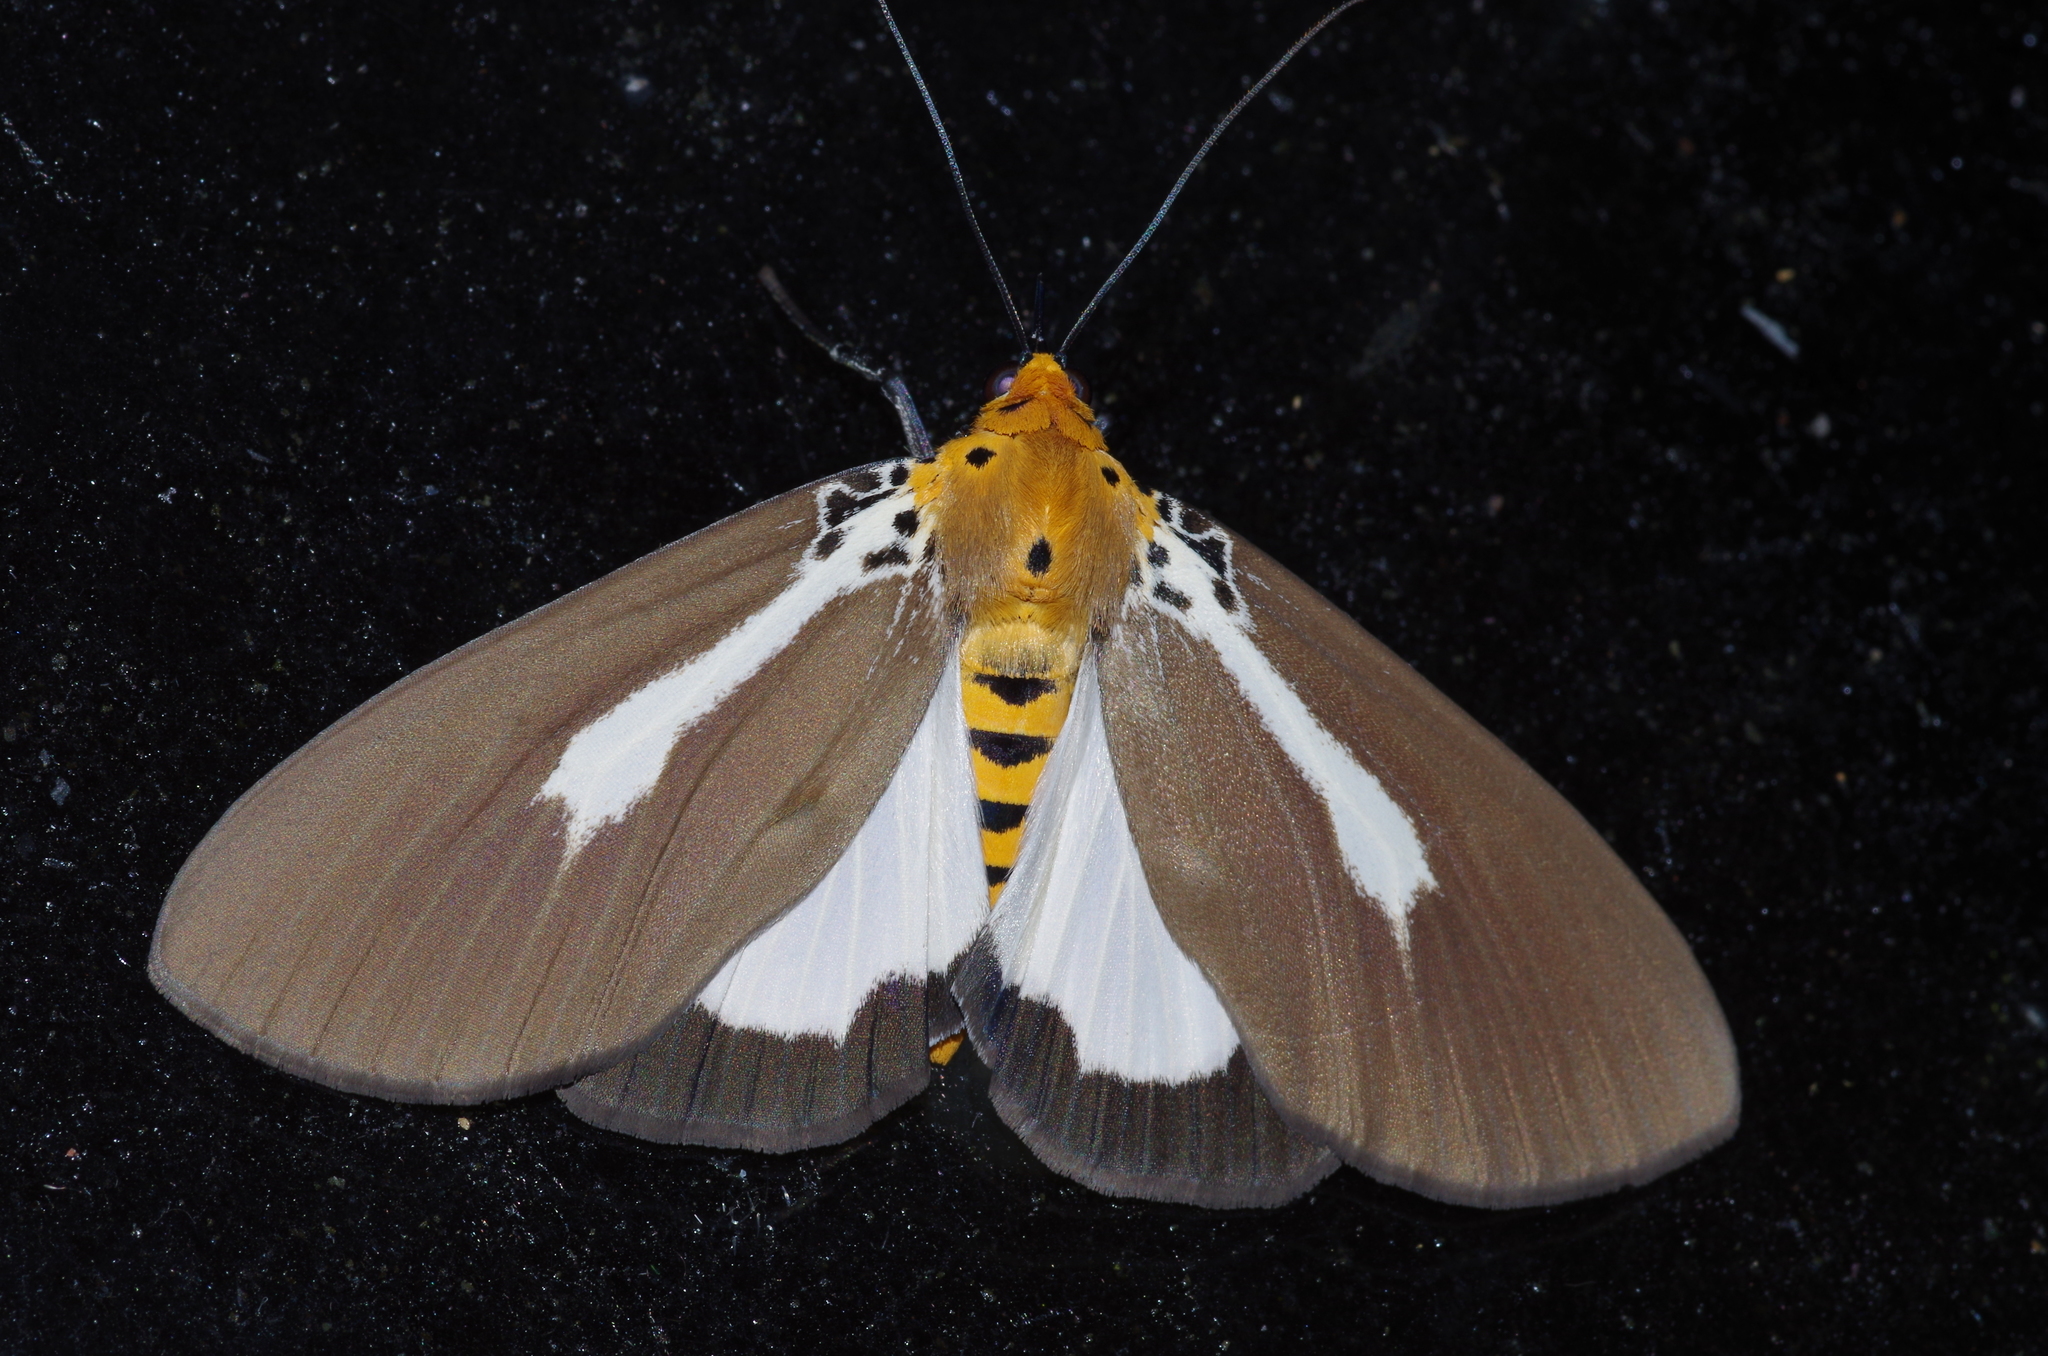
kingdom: Animalia
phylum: Arthropoda
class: Insecta
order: Lepidoptera
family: Erebidae
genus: Asota
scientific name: Asota heliconia
